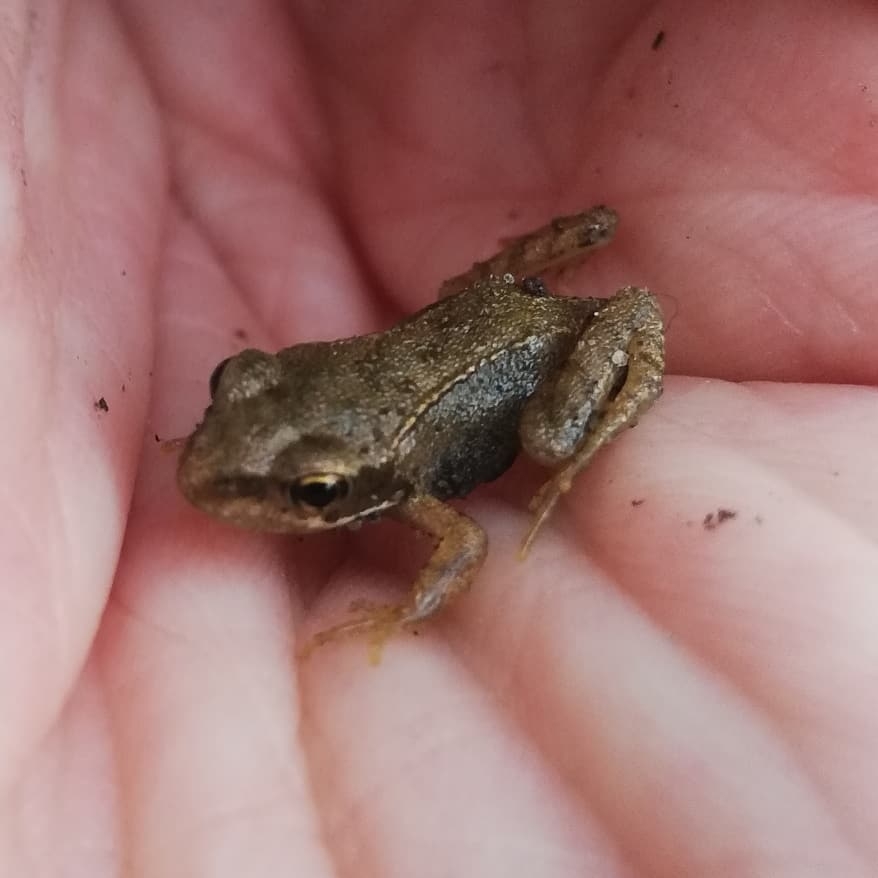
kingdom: Animalia
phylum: Chordata
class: Amphibia
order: Anura
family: Ranidae
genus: Rana
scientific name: Rana temporaria
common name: Common frog
